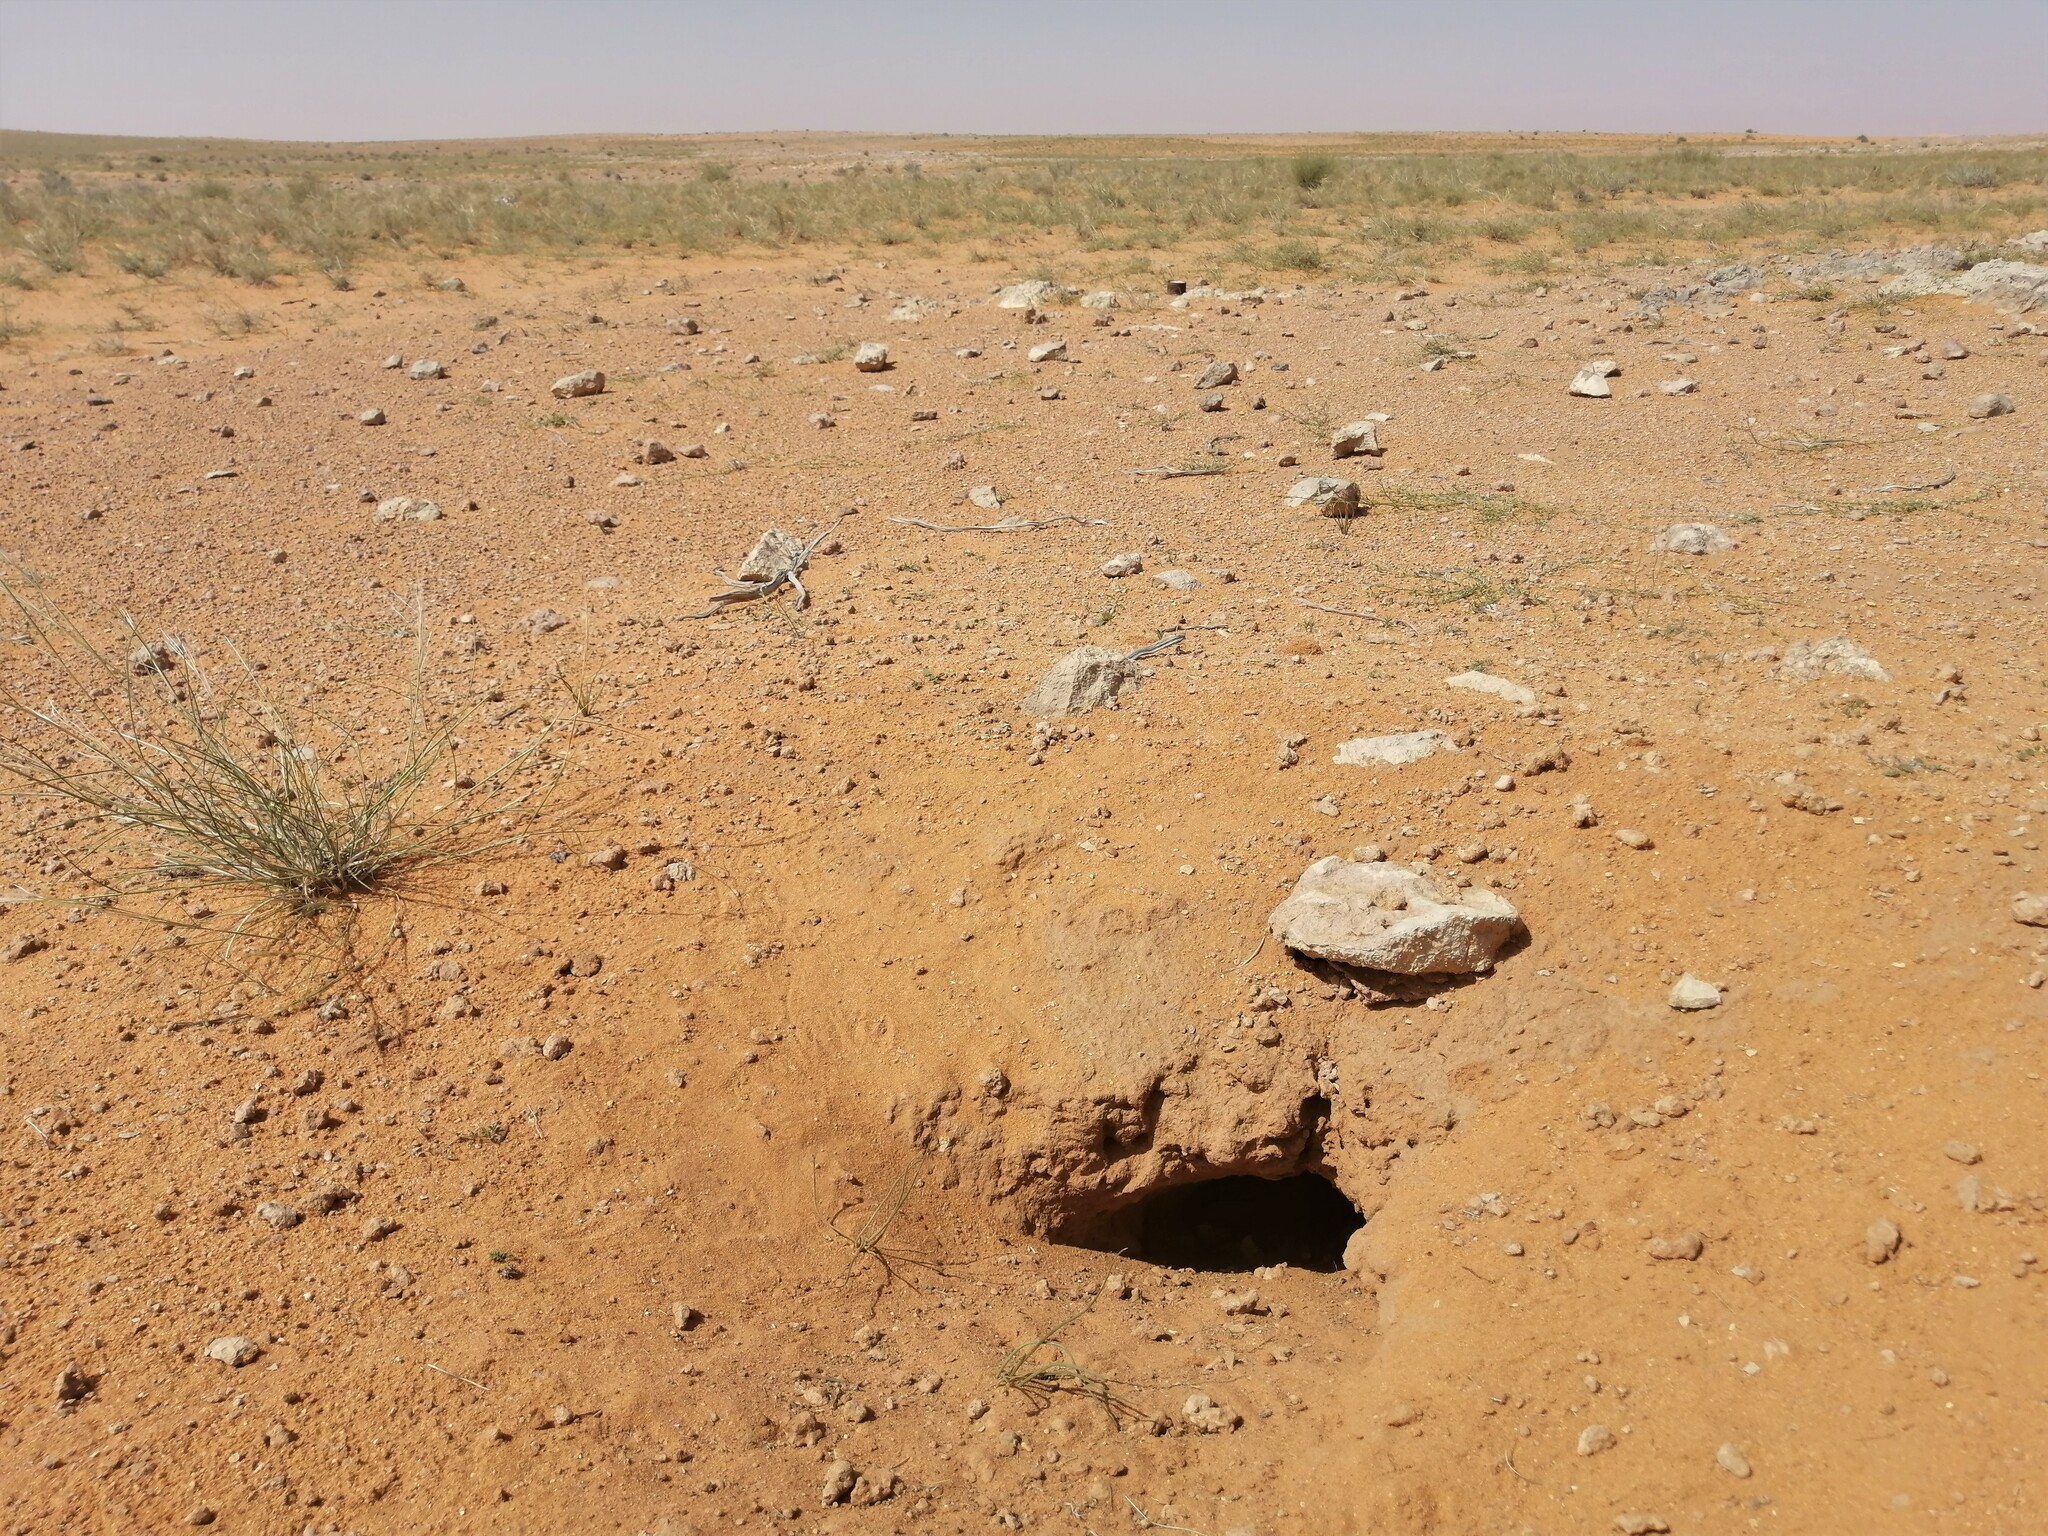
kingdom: Animalia
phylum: Chordata
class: Squamata
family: Agamidae
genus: Uromastyx
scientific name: Uromastyx aegyptia
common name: Egyptian mastigure
